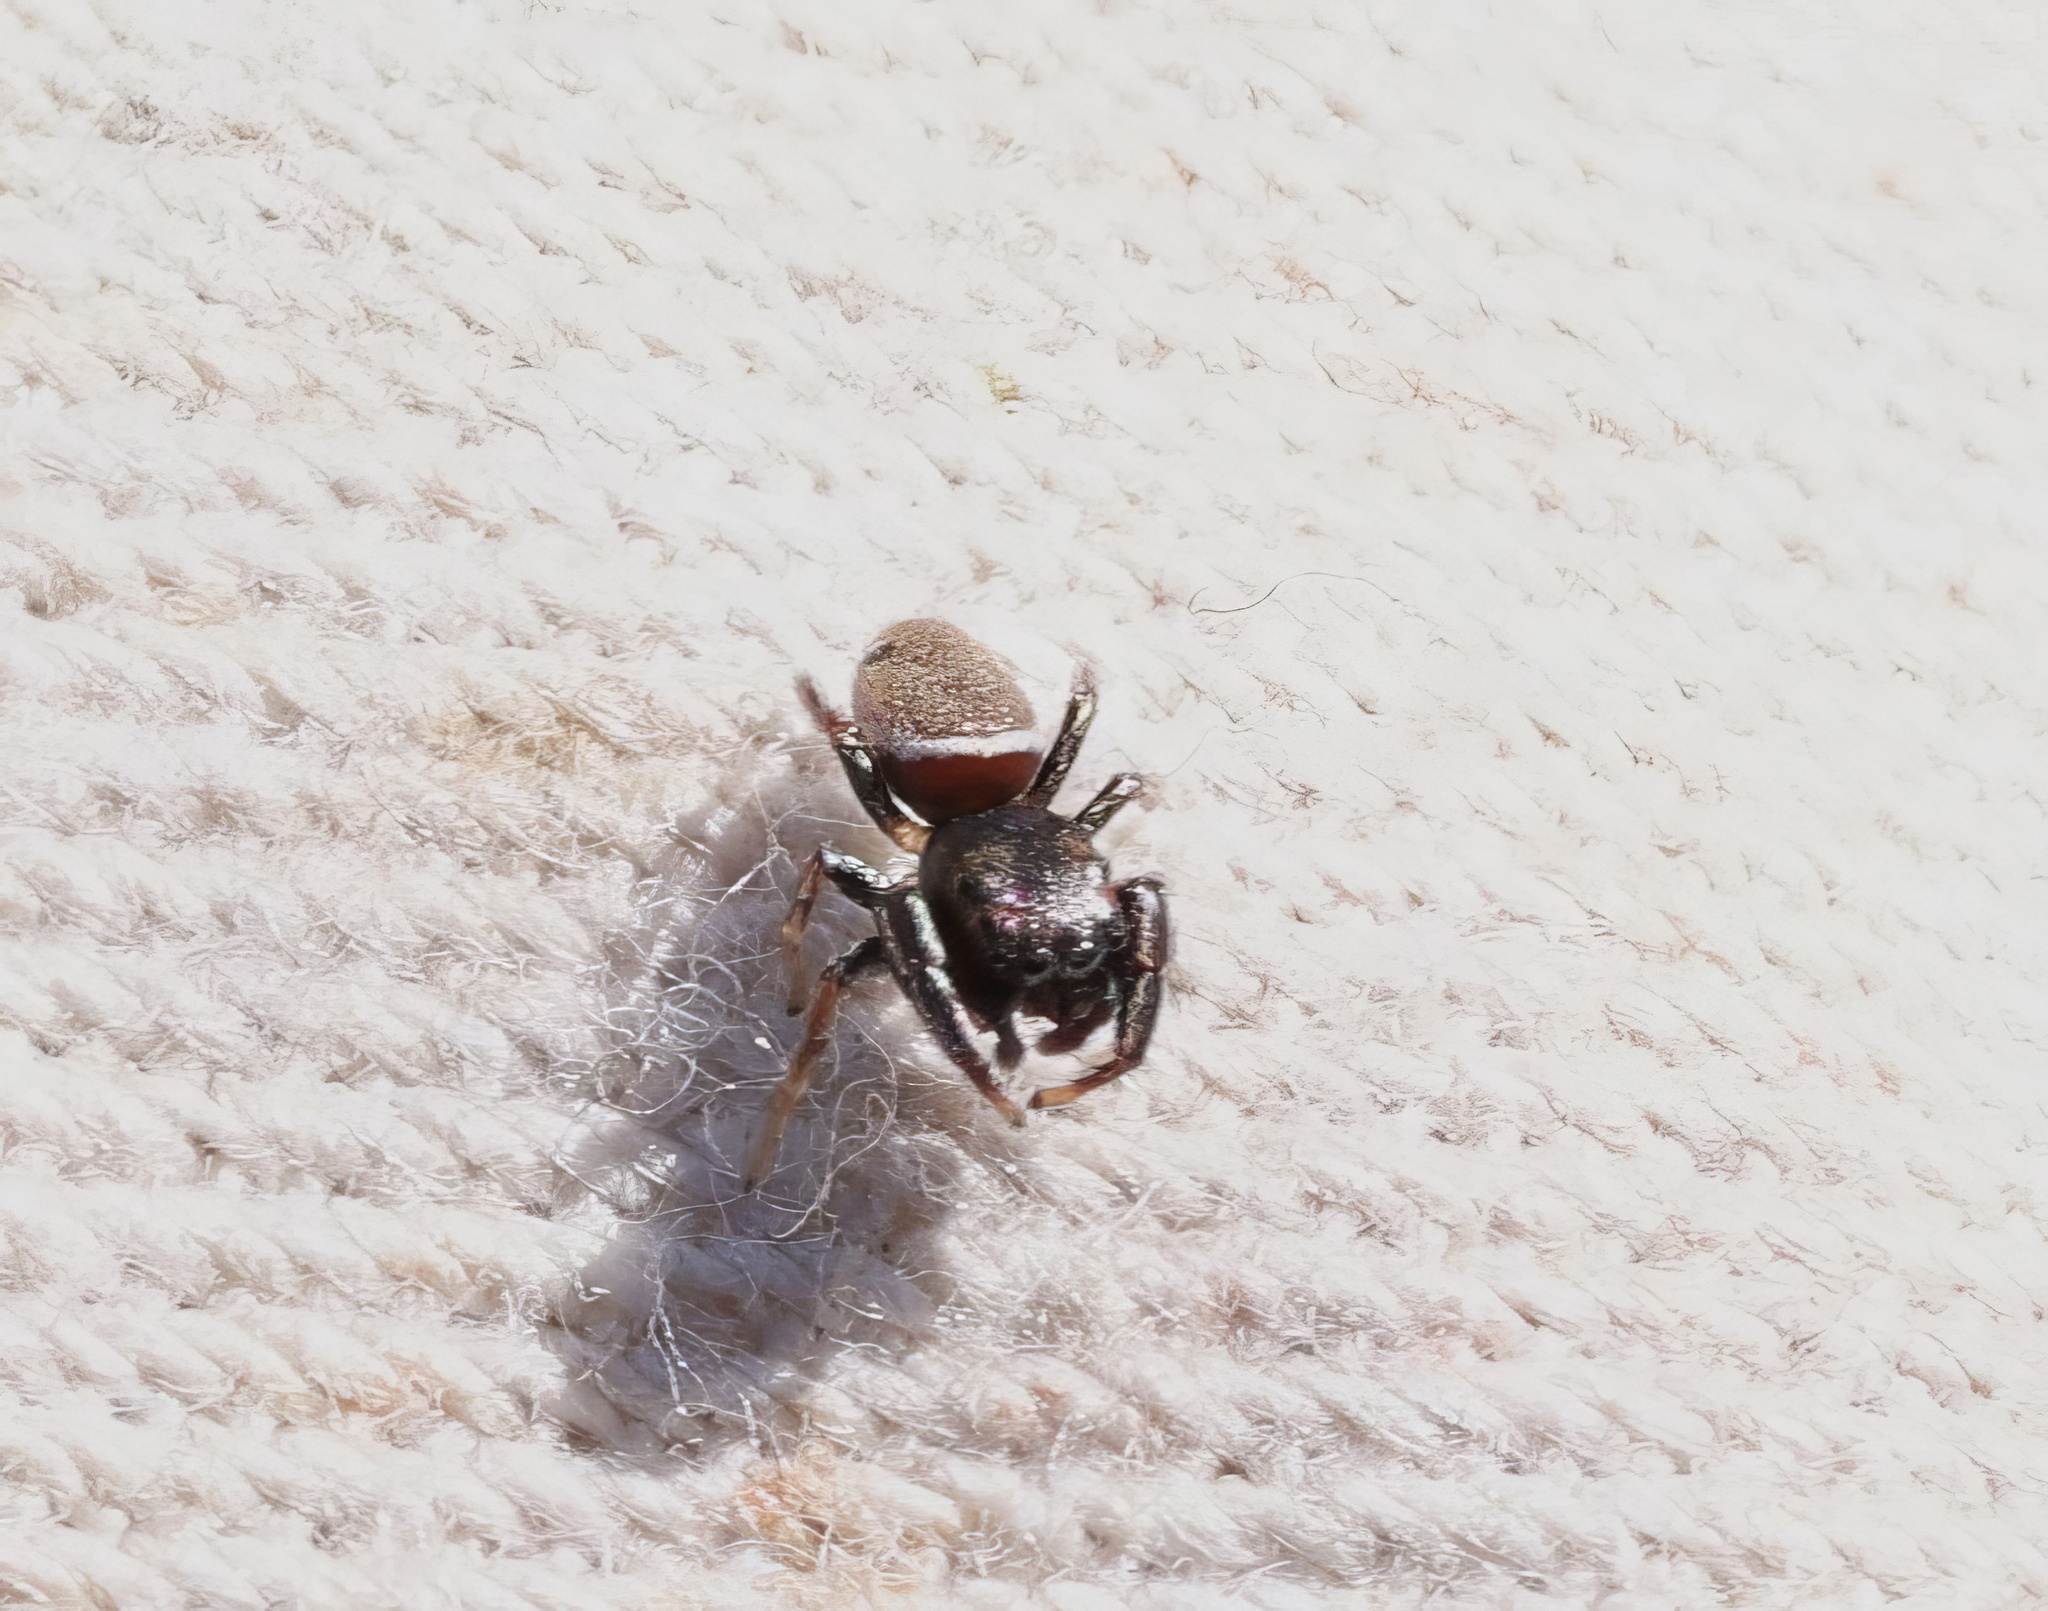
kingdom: Animalia
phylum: Arthropoda
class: Arachnida
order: Araneae
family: Salticidae
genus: Sassacus
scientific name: Sassacus vitis
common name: Jumping spiders
